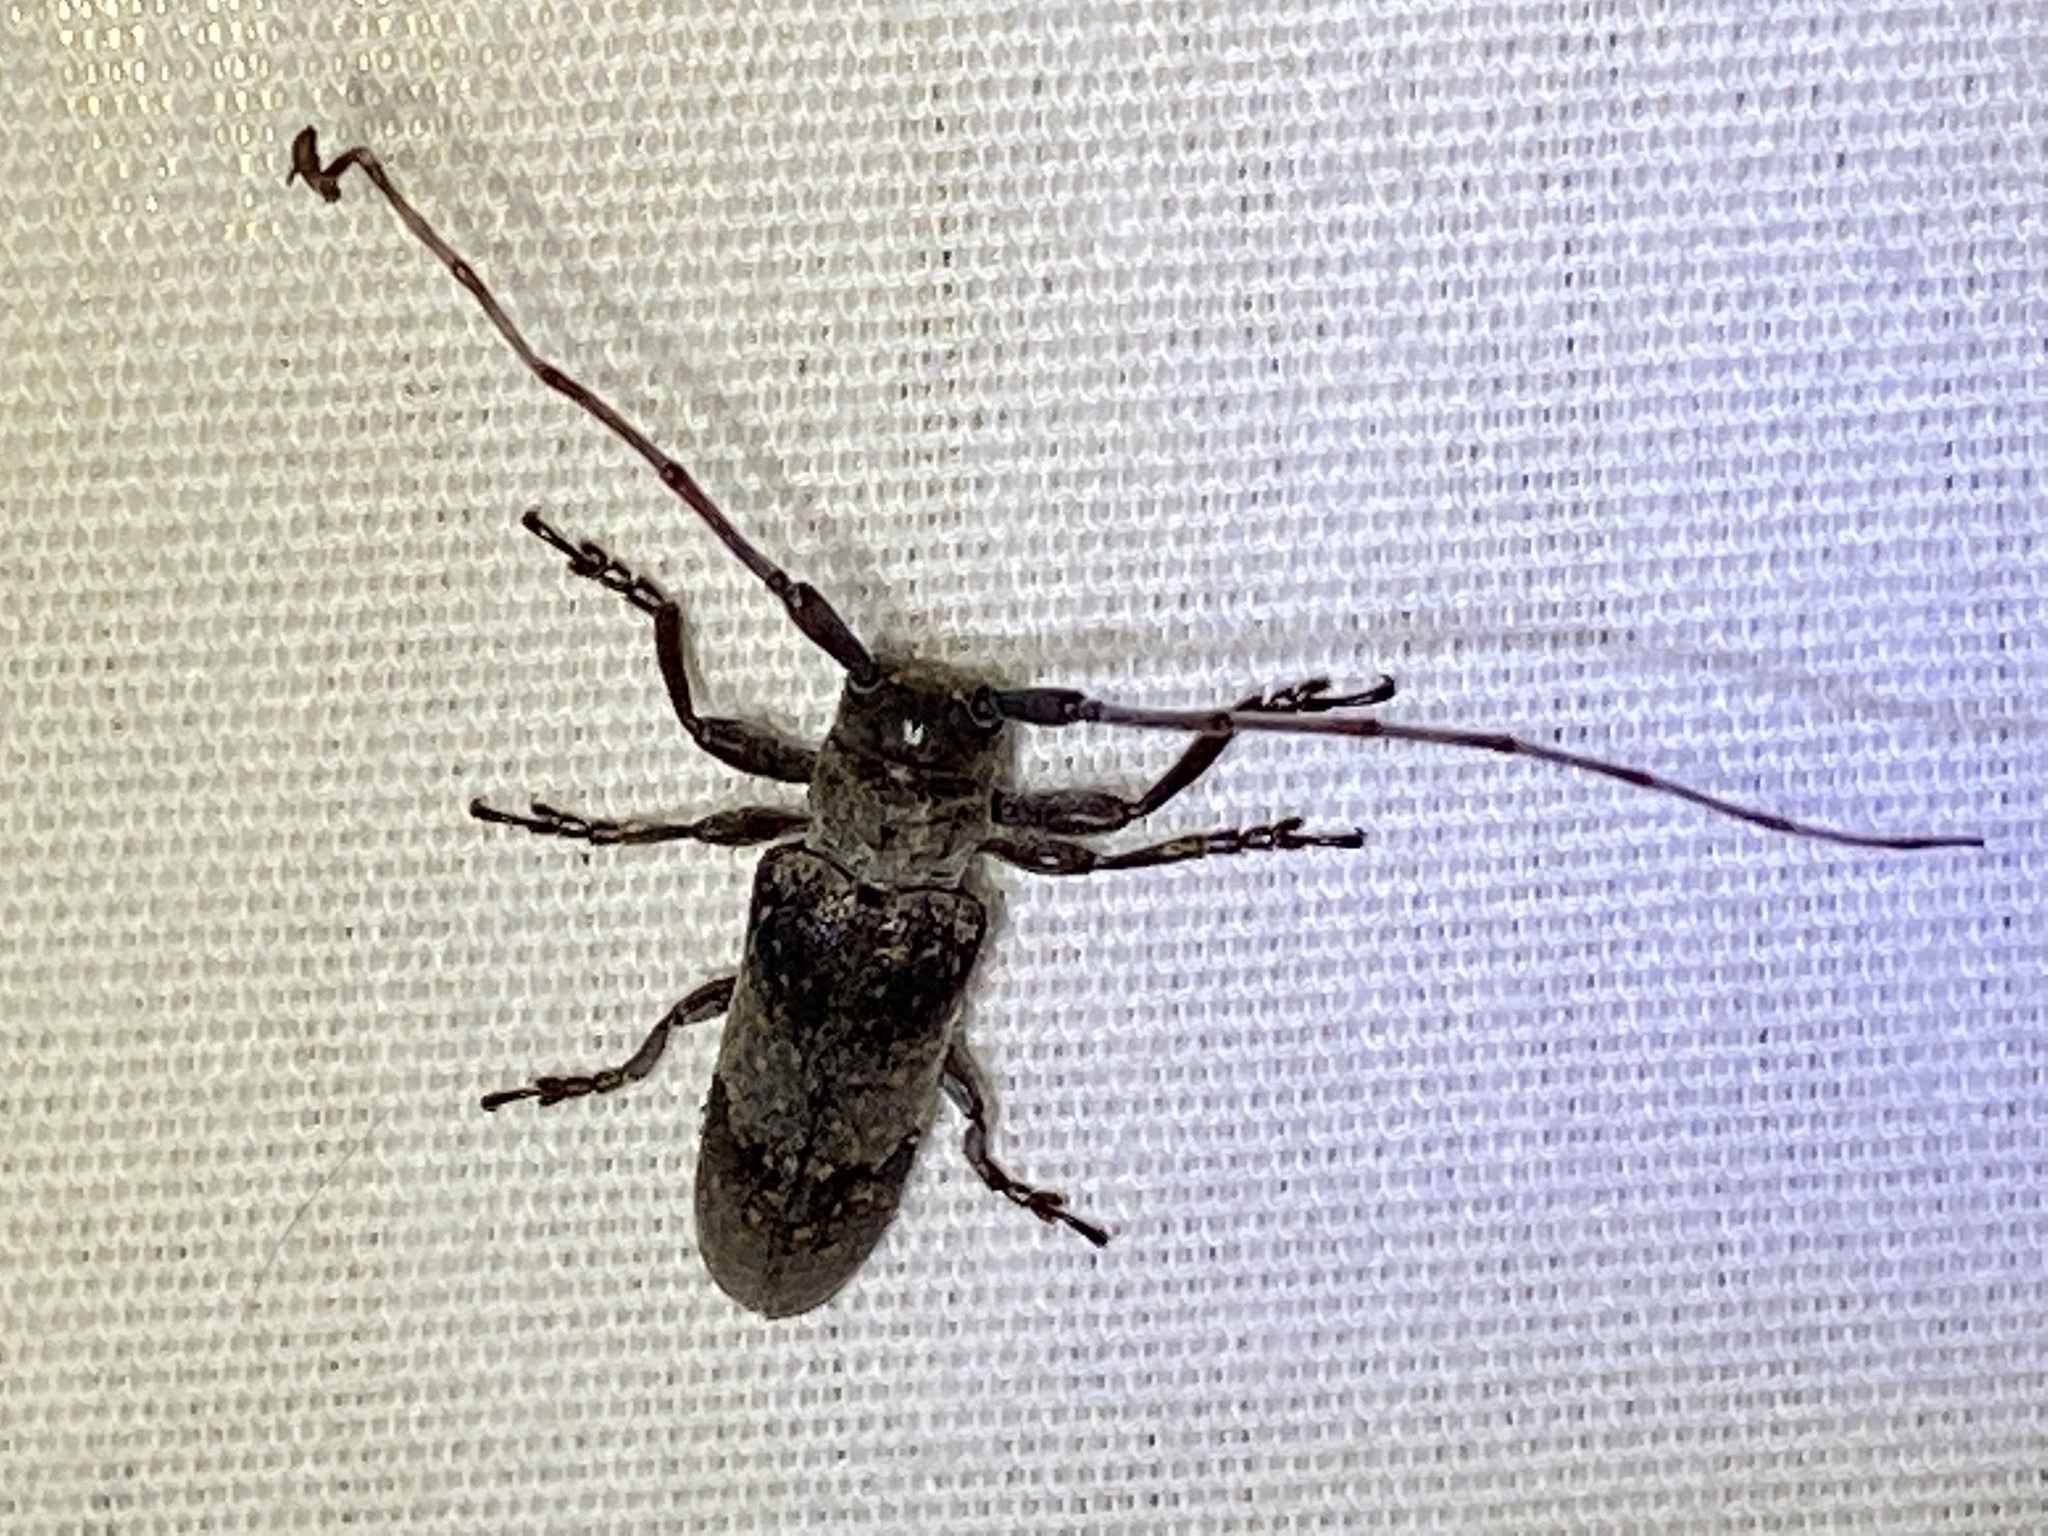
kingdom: Animalia
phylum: Arthropoda
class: Insecta
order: Coleoptera
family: Cerambycidae
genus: Oncideres
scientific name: Oncideres cingulata
